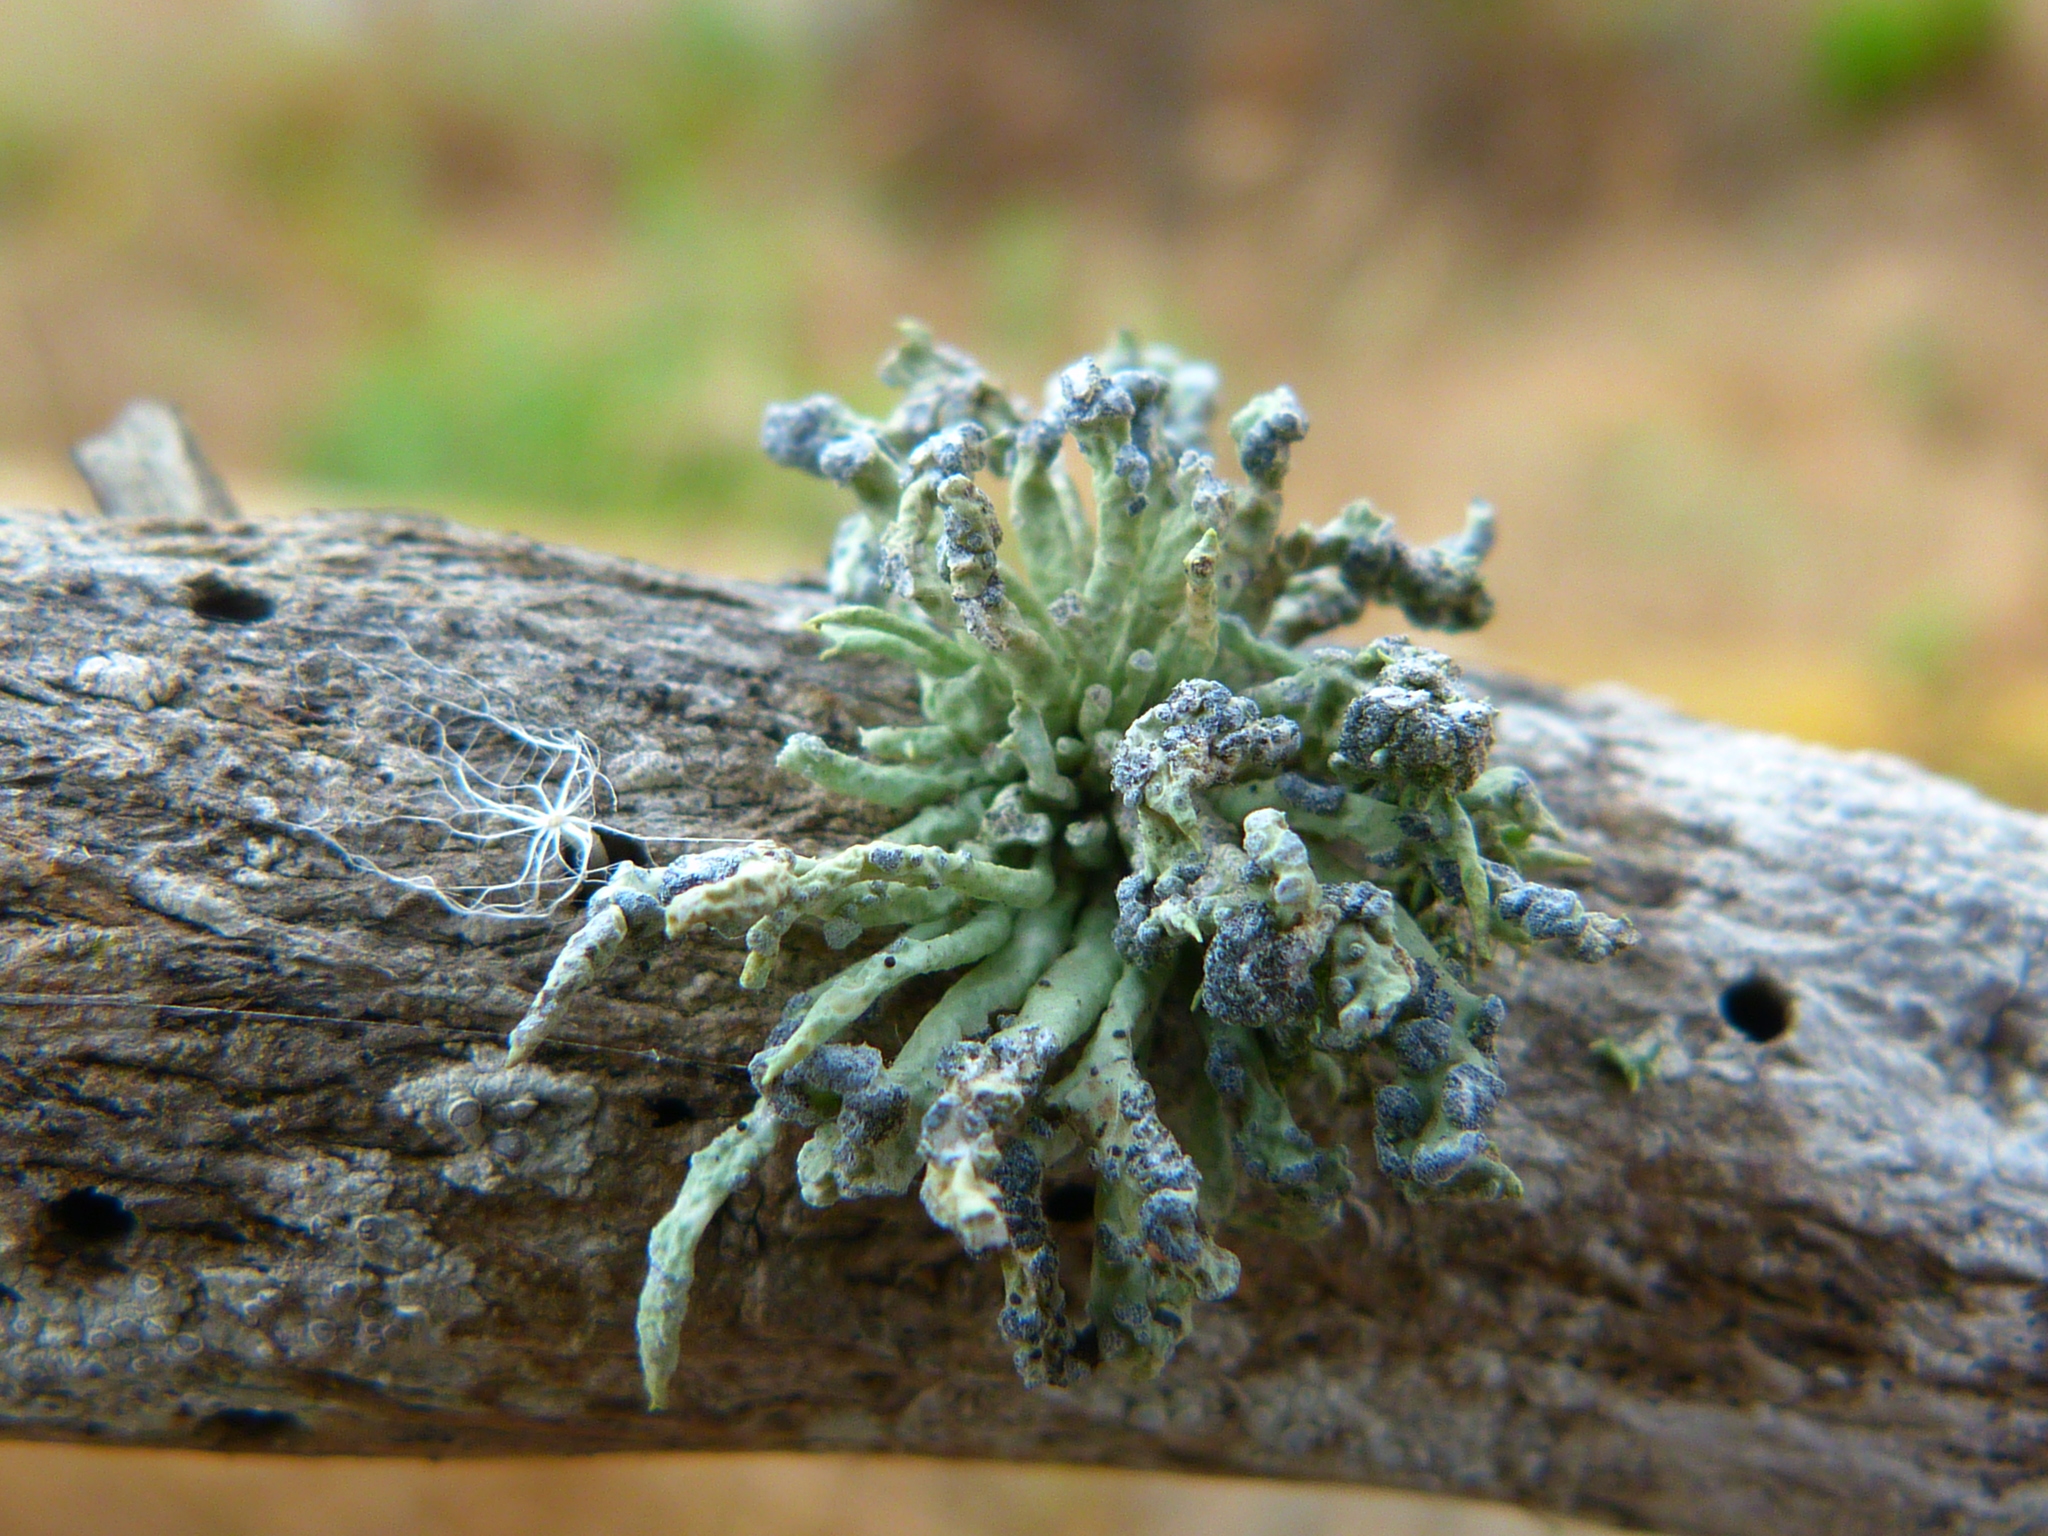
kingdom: Fungi
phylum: Ascomycota
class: Lecanoromycetes
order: Lecanorales
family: Ramalinaceae
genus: Niebla
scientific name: Niebla cephalota
